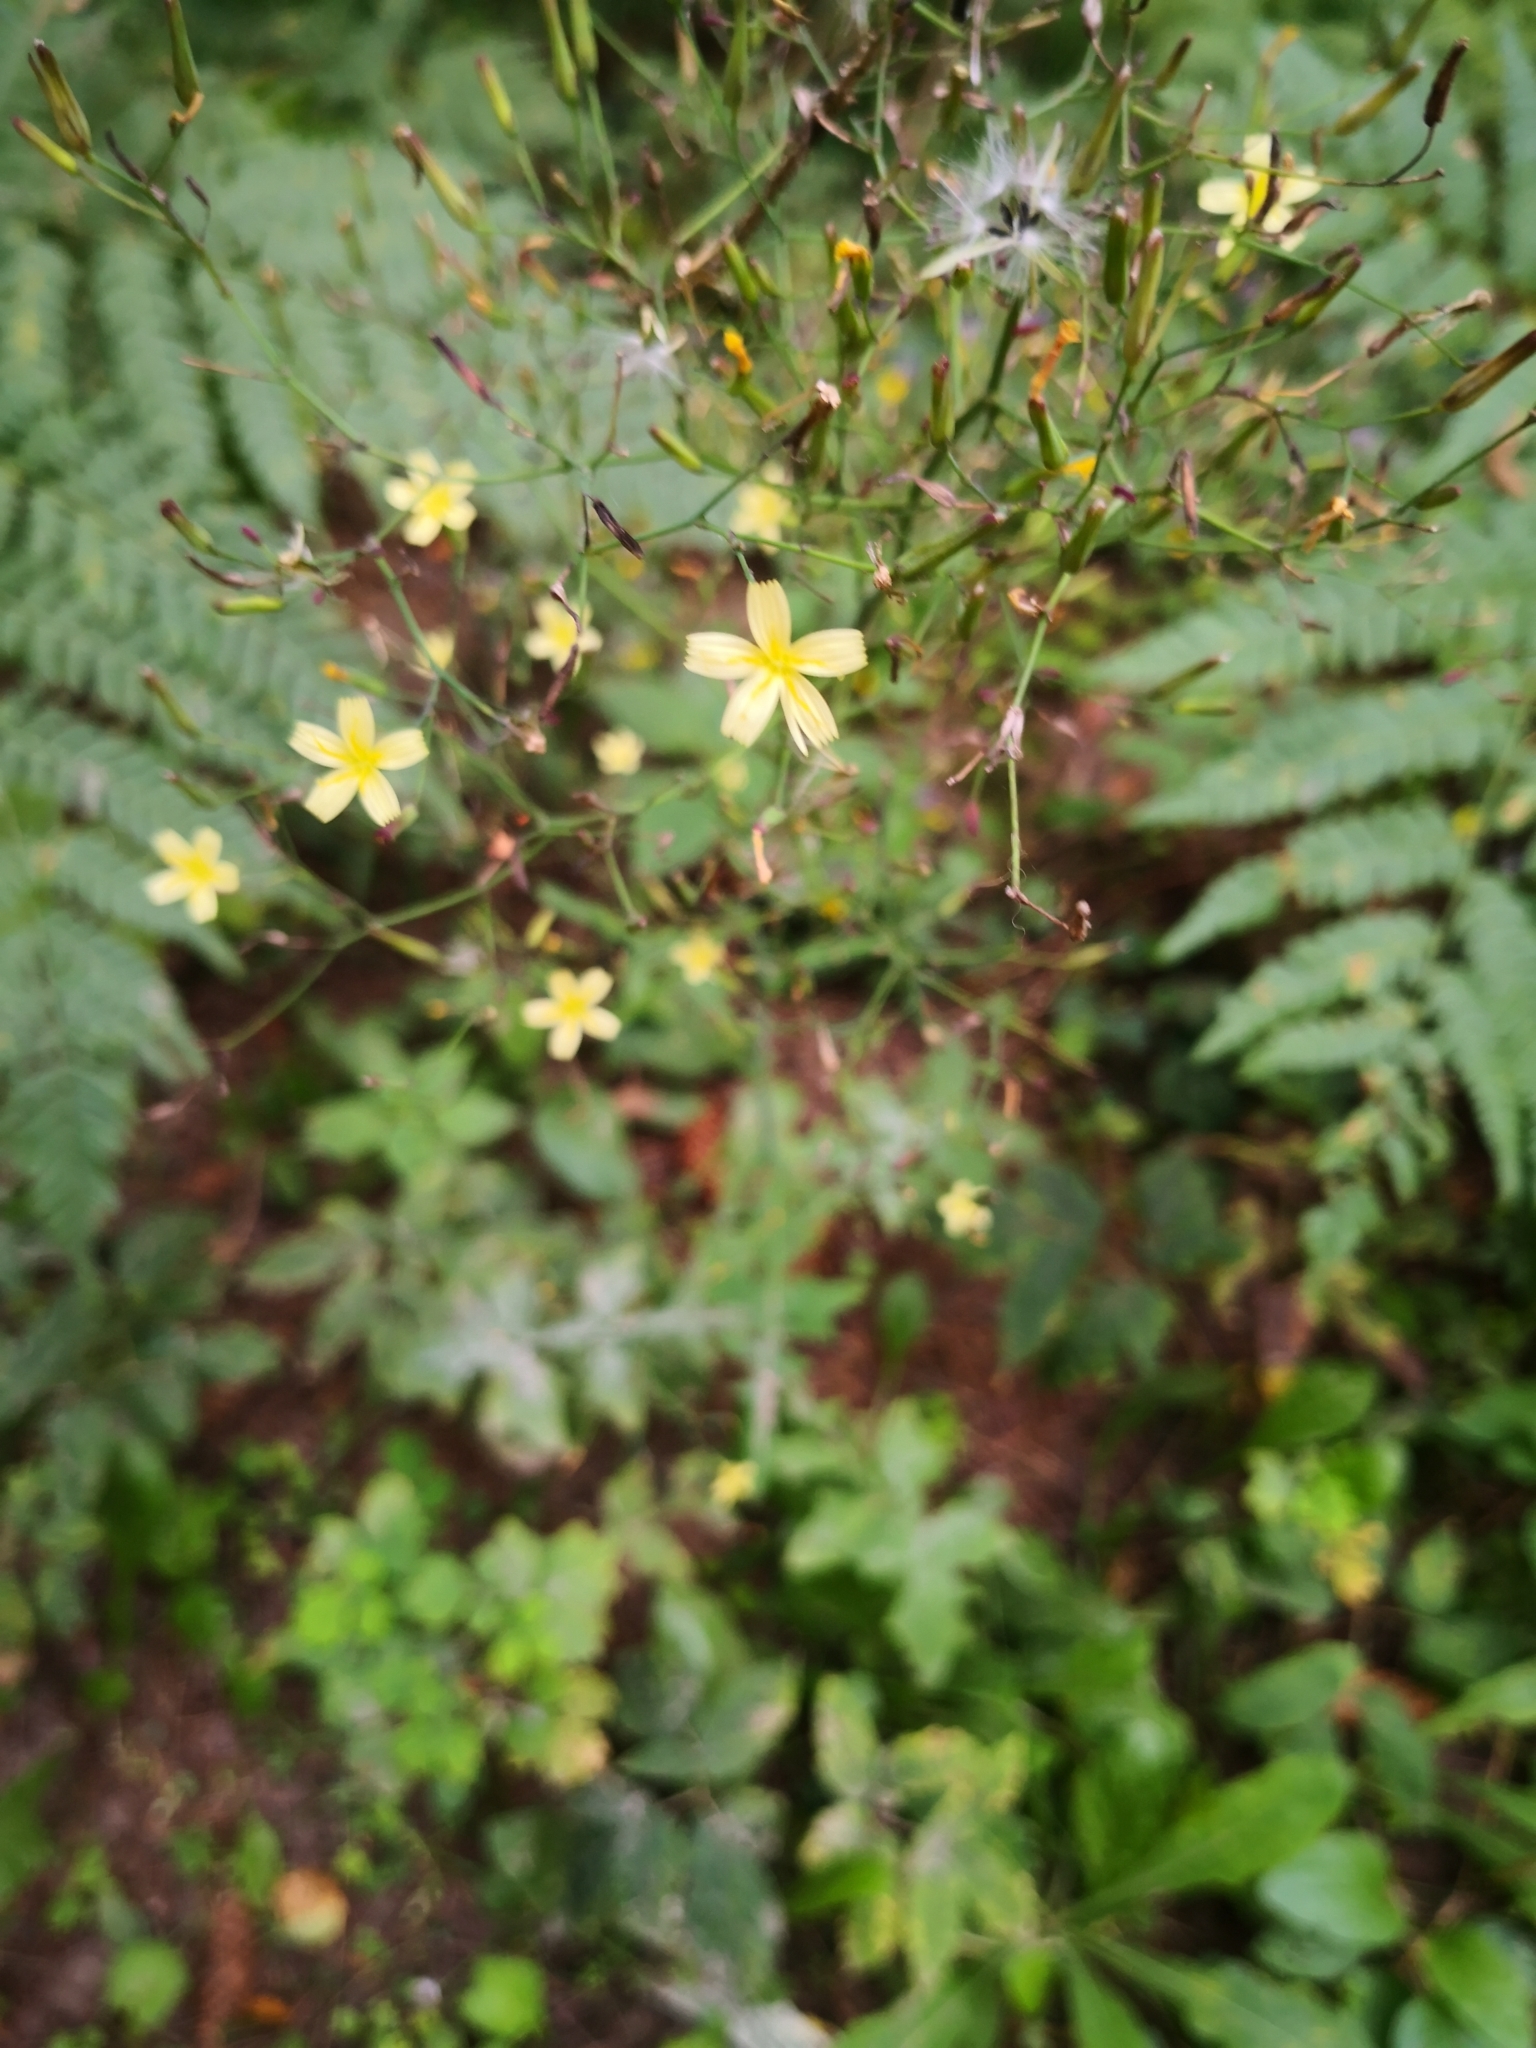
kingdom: Plantae
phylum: Tracheophyta
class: Magnoliopsida
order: Asterales
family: Asteraceae
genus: Mycelis
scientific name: Mycelis muralis
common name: Wall lettuce
